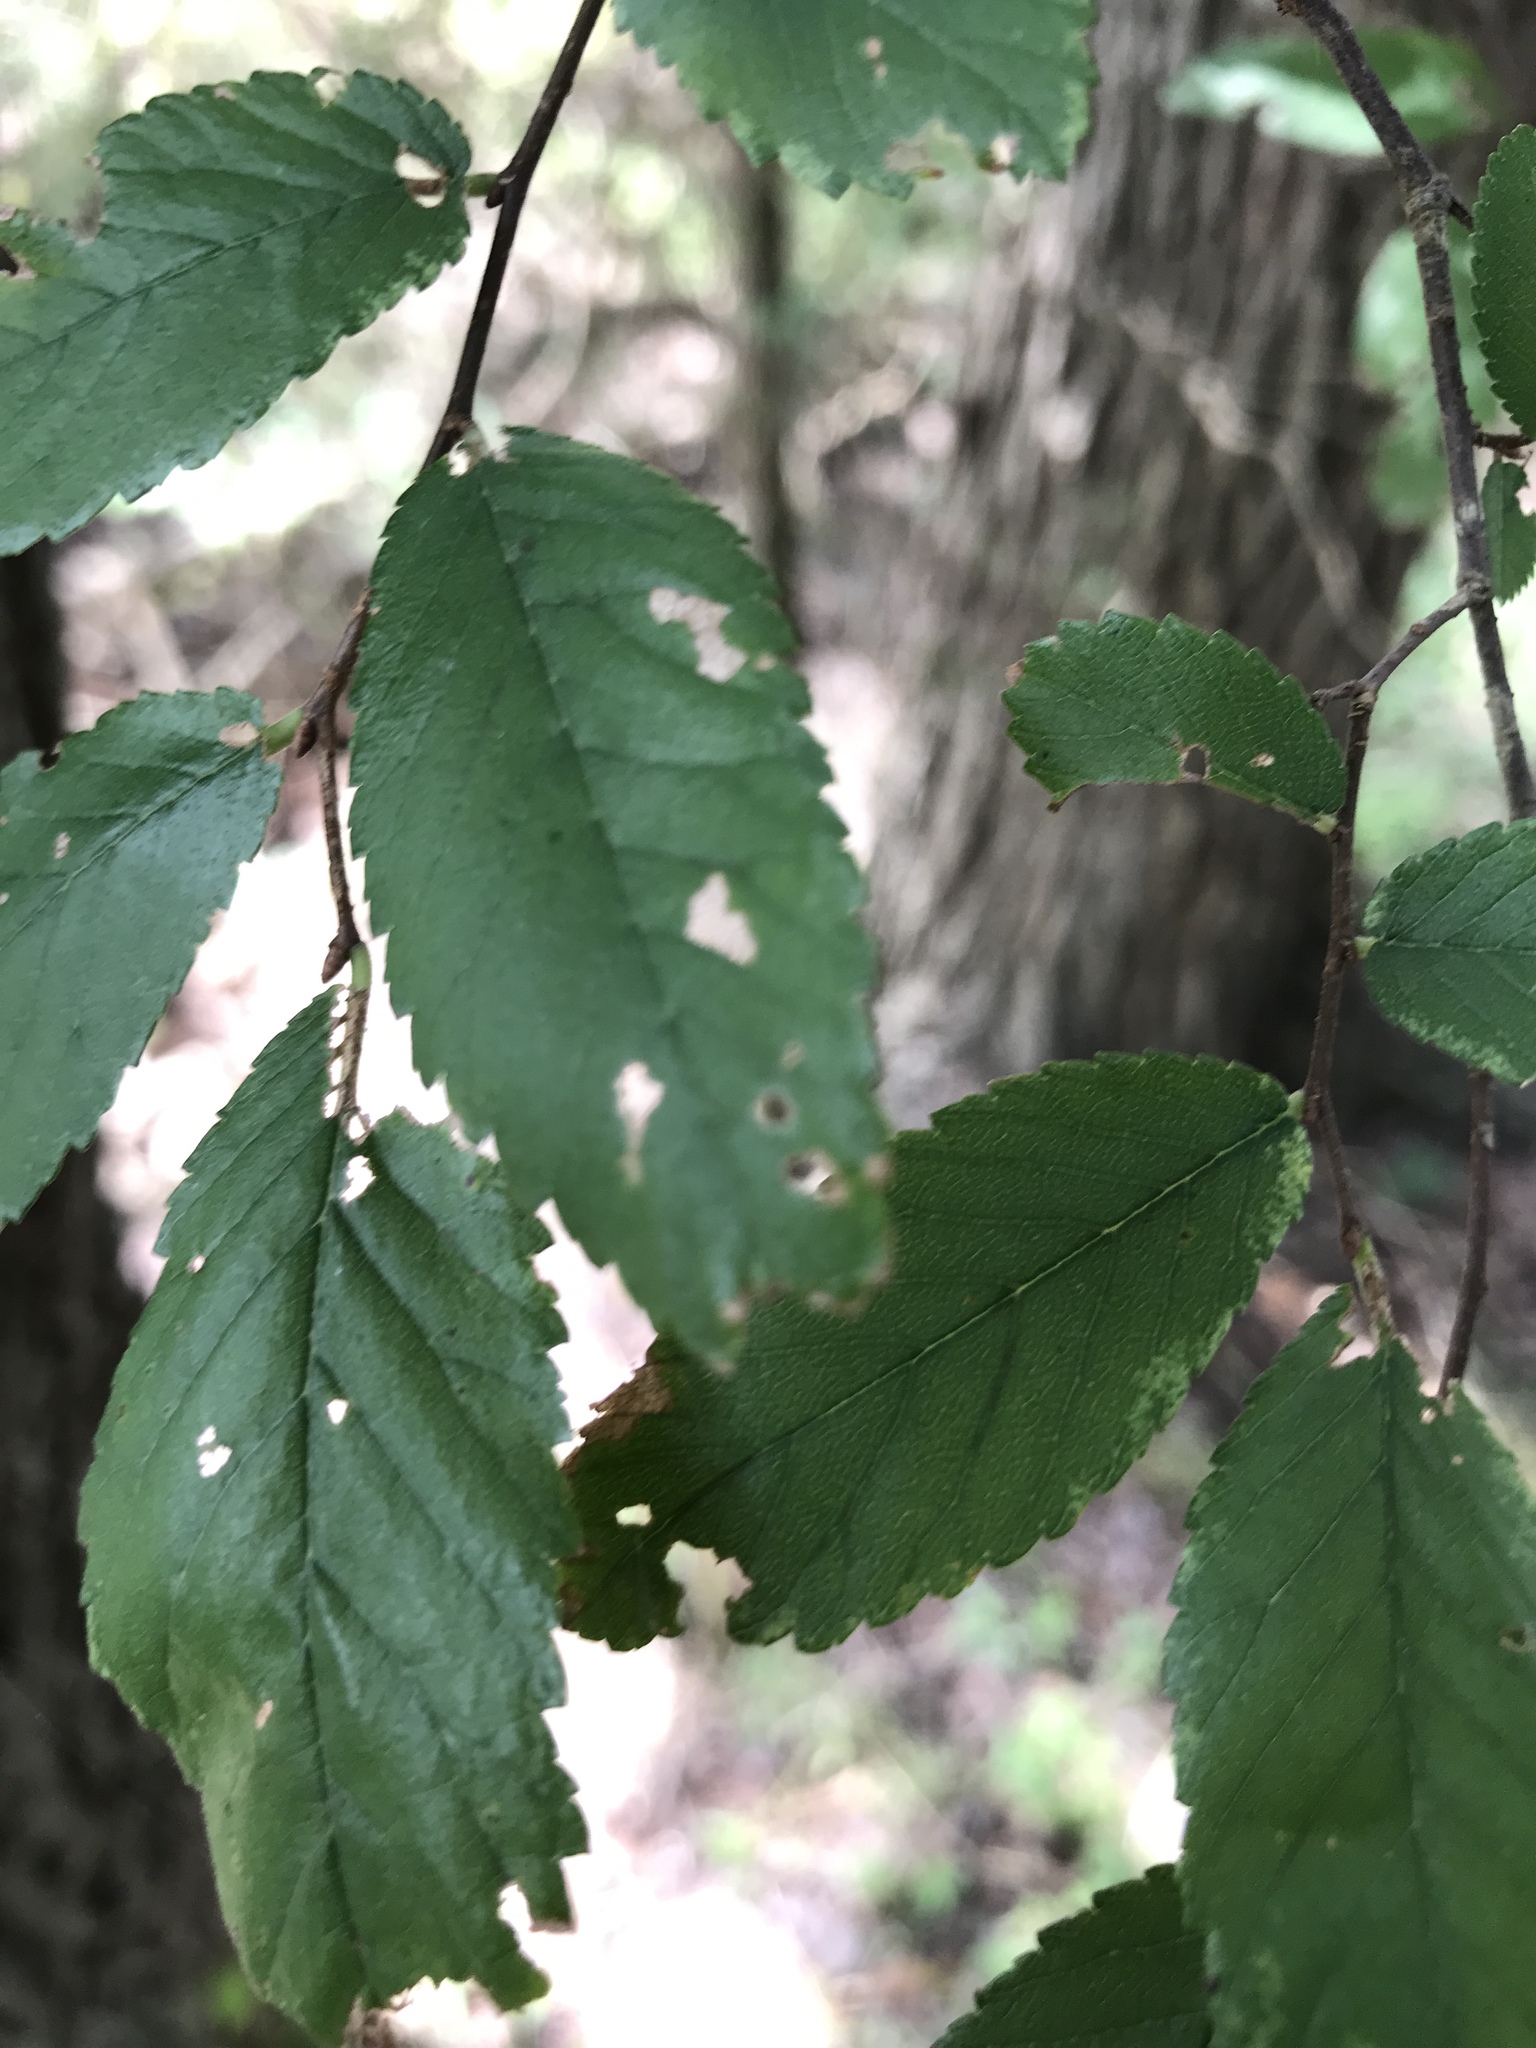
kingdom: Plantae
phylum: Tracheophyta
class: Magnoliopsida
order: Rosales
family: Ulmaceae
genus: Ulmus
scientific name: Ulmus crassifolia
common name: Basket elm
